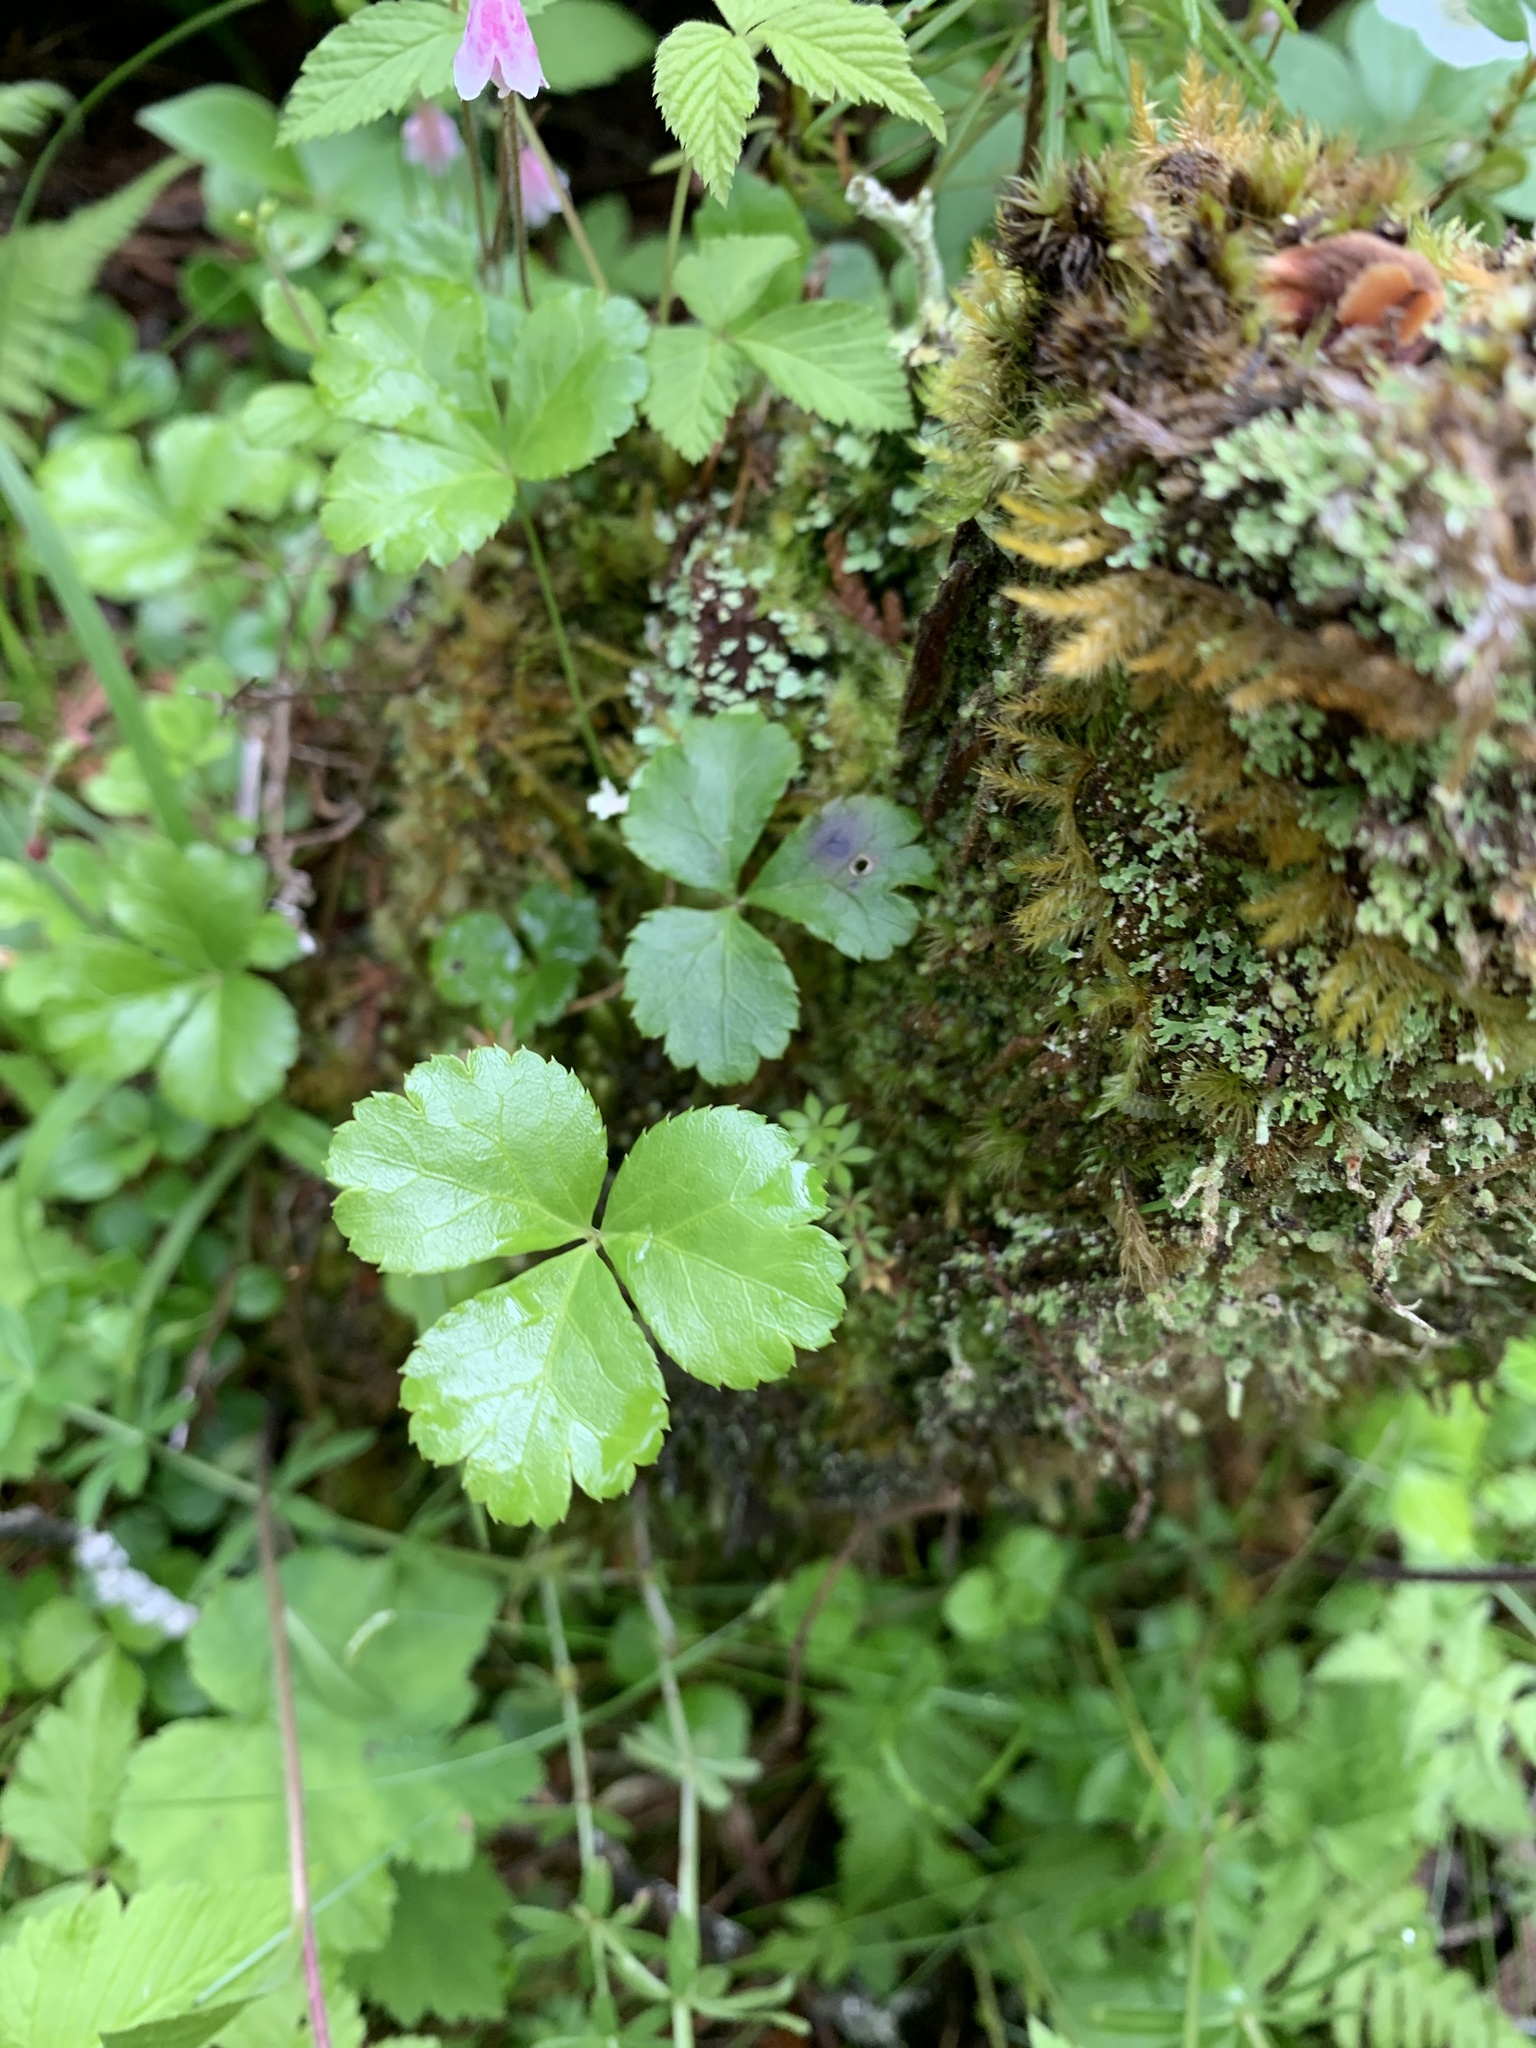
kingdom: Plantae
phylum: Tracheophyta
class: Magnoliopsida
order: Ranunculales
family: Ranunculaceae
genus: Coptis
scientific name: Coptis trifolia
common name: Canker-root
